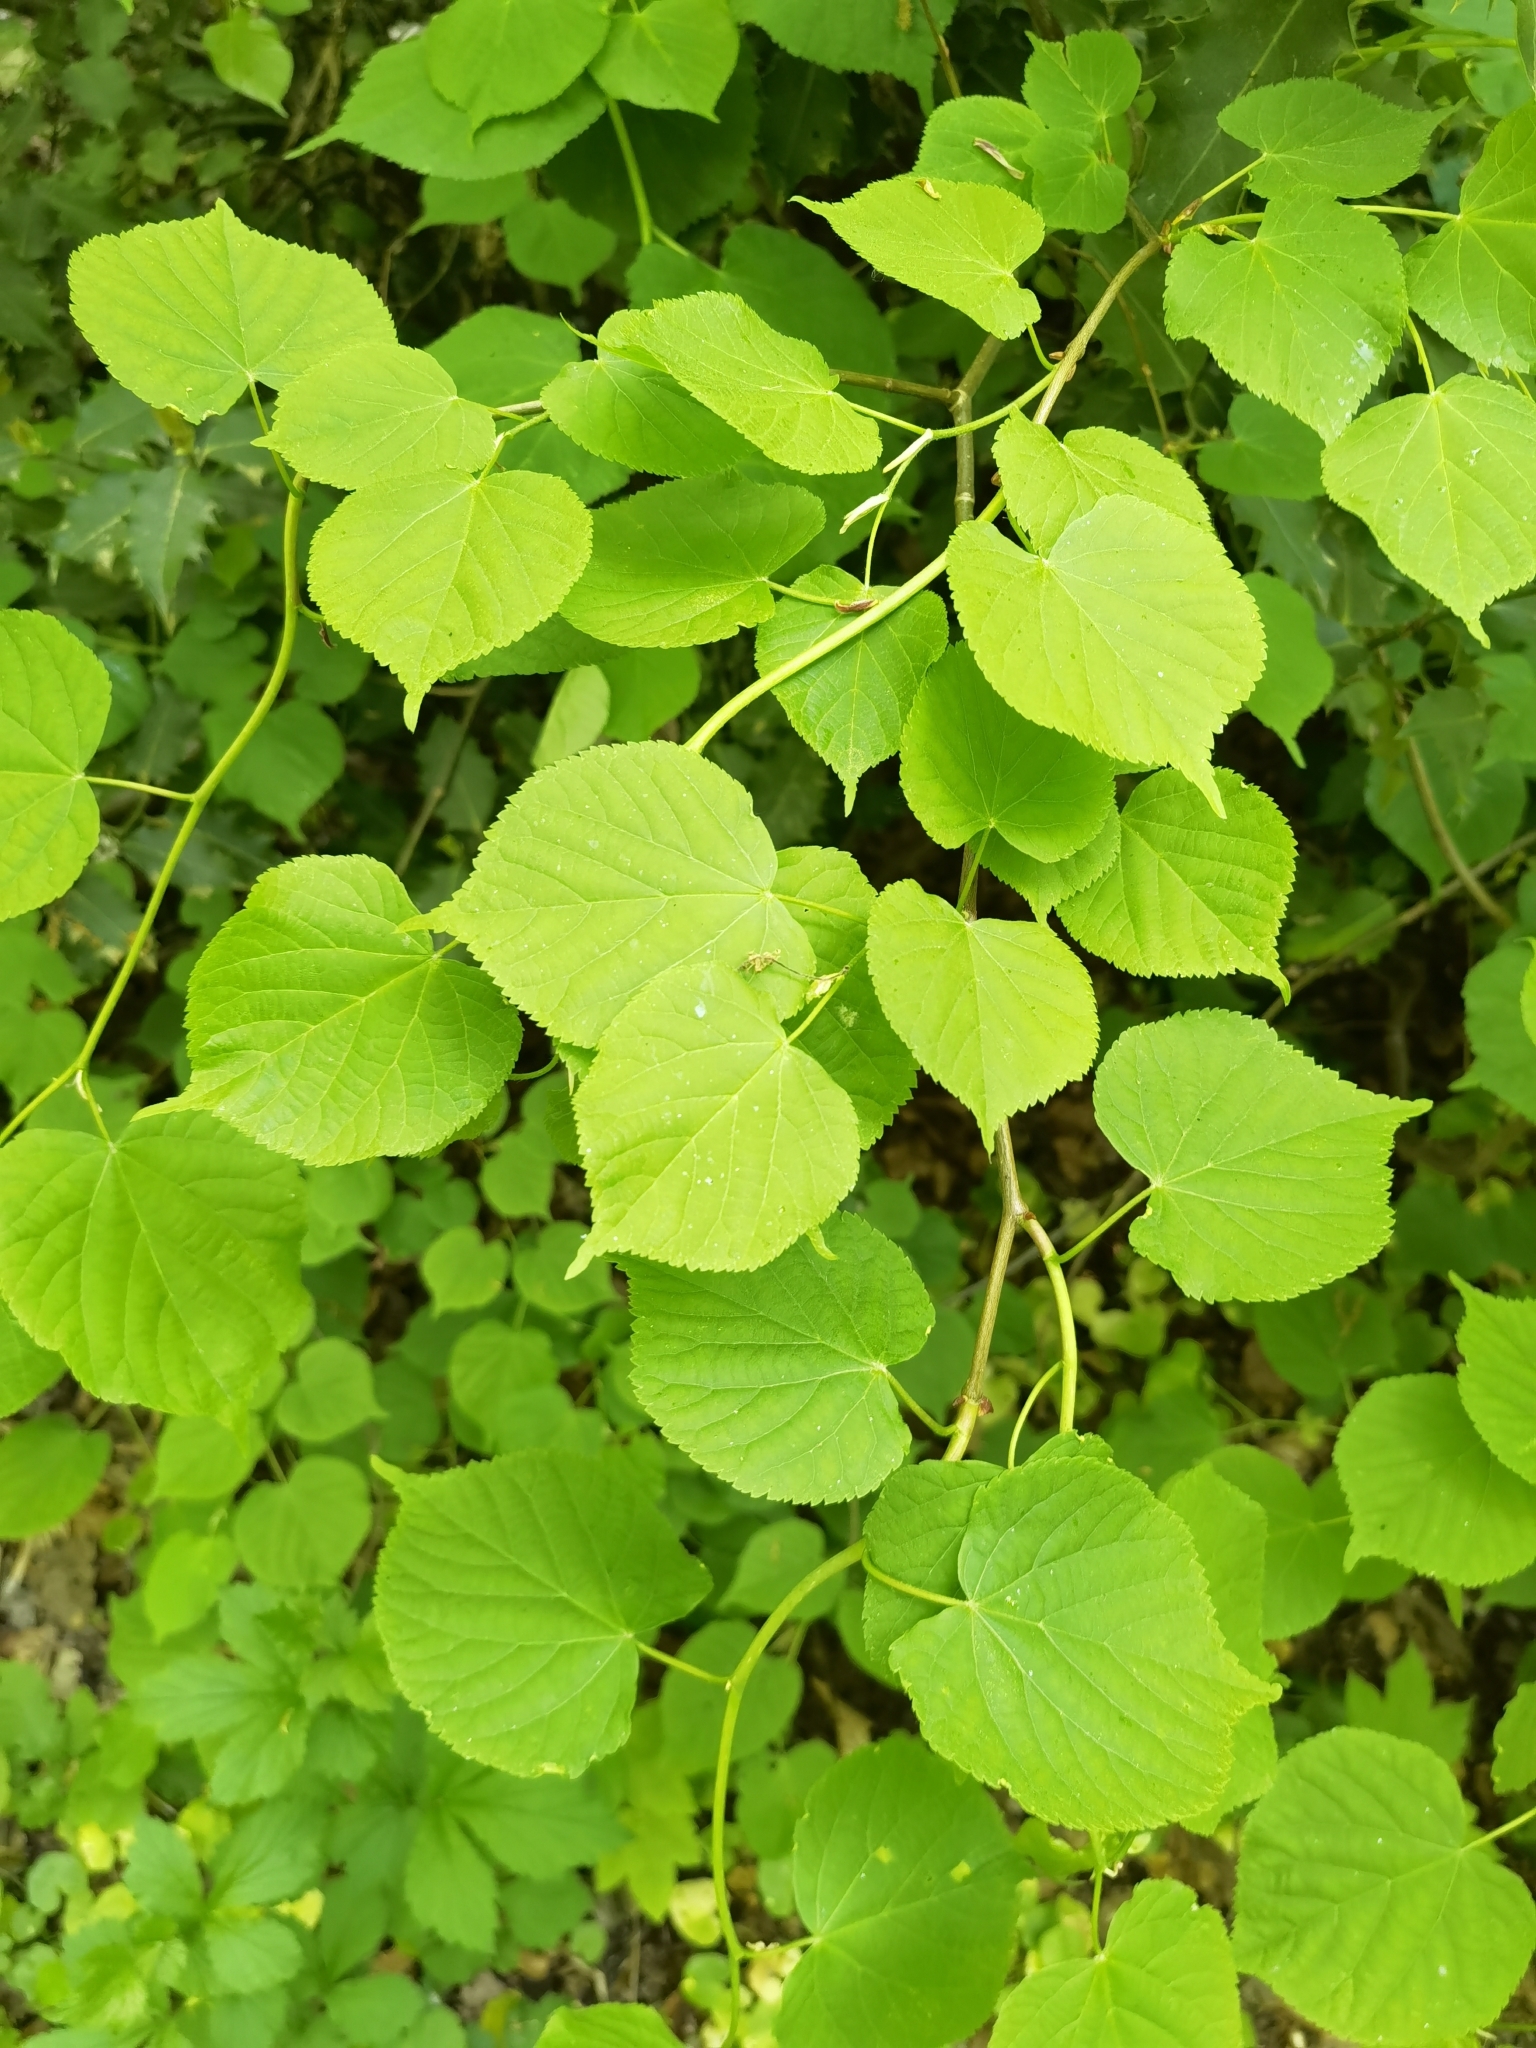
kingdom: Plantae
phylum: Tracheophyta
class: Magnoliopsida
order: Malvales
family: Malvaceae
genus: Tilia
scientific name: Tilia cordata
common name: Small-leaved lime
